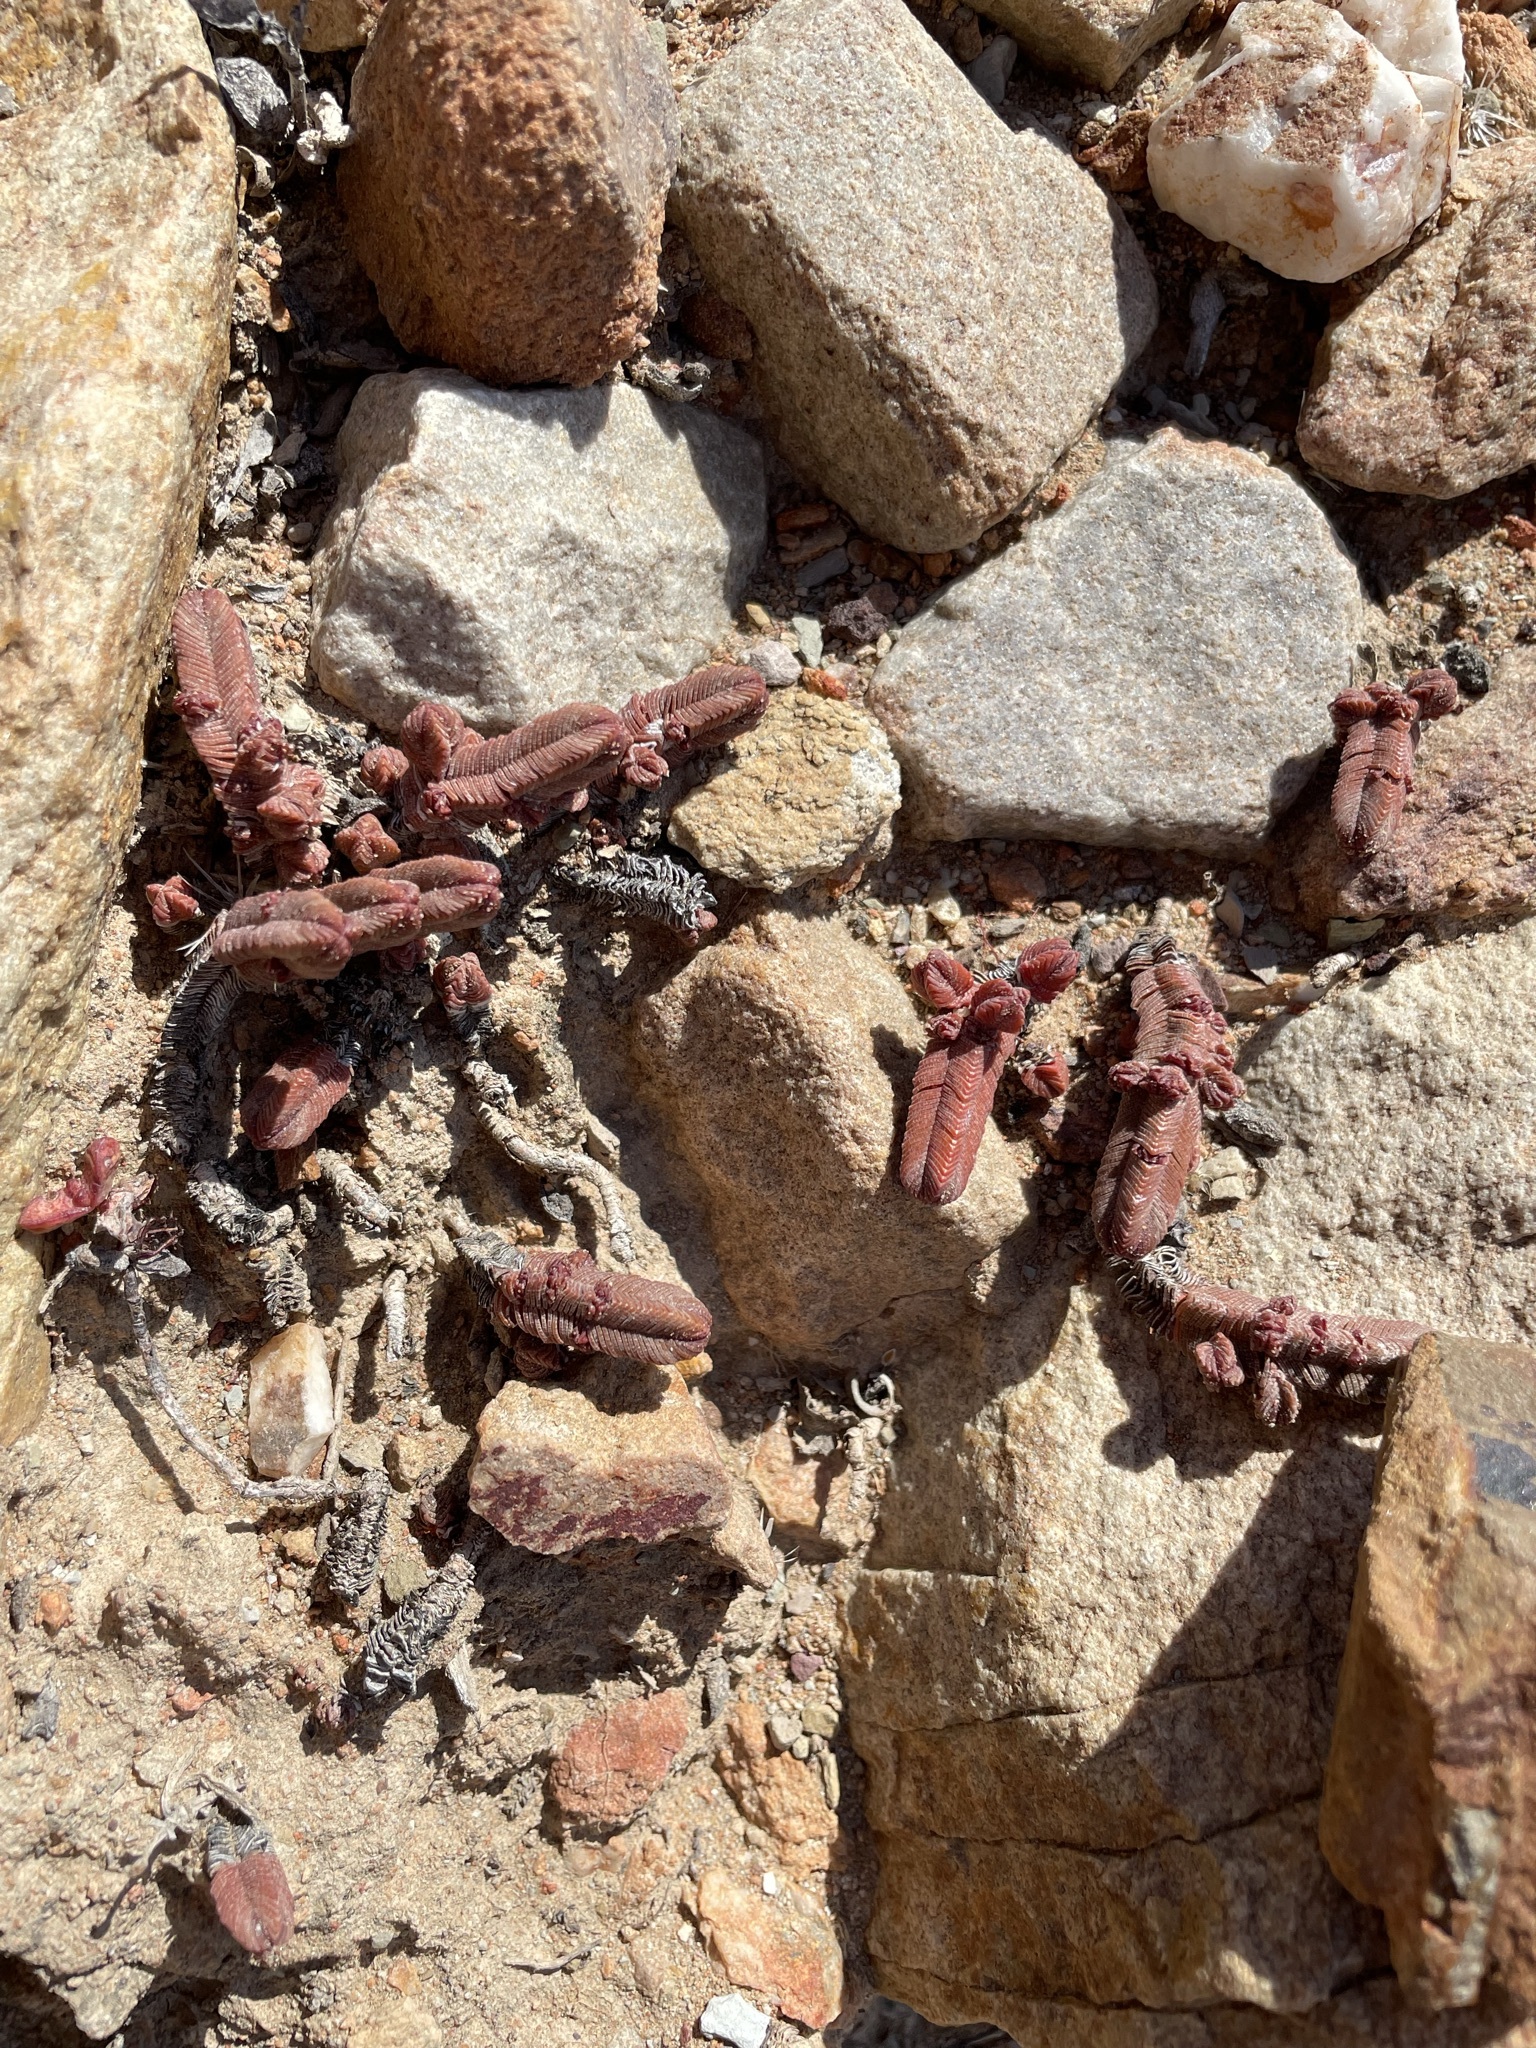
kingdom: Plantae
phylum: Tracheophyta
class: Magnoliopsida
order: Saxifragales
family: Crassulaceae
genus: Crassula
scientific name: Crassula pyramidalis
